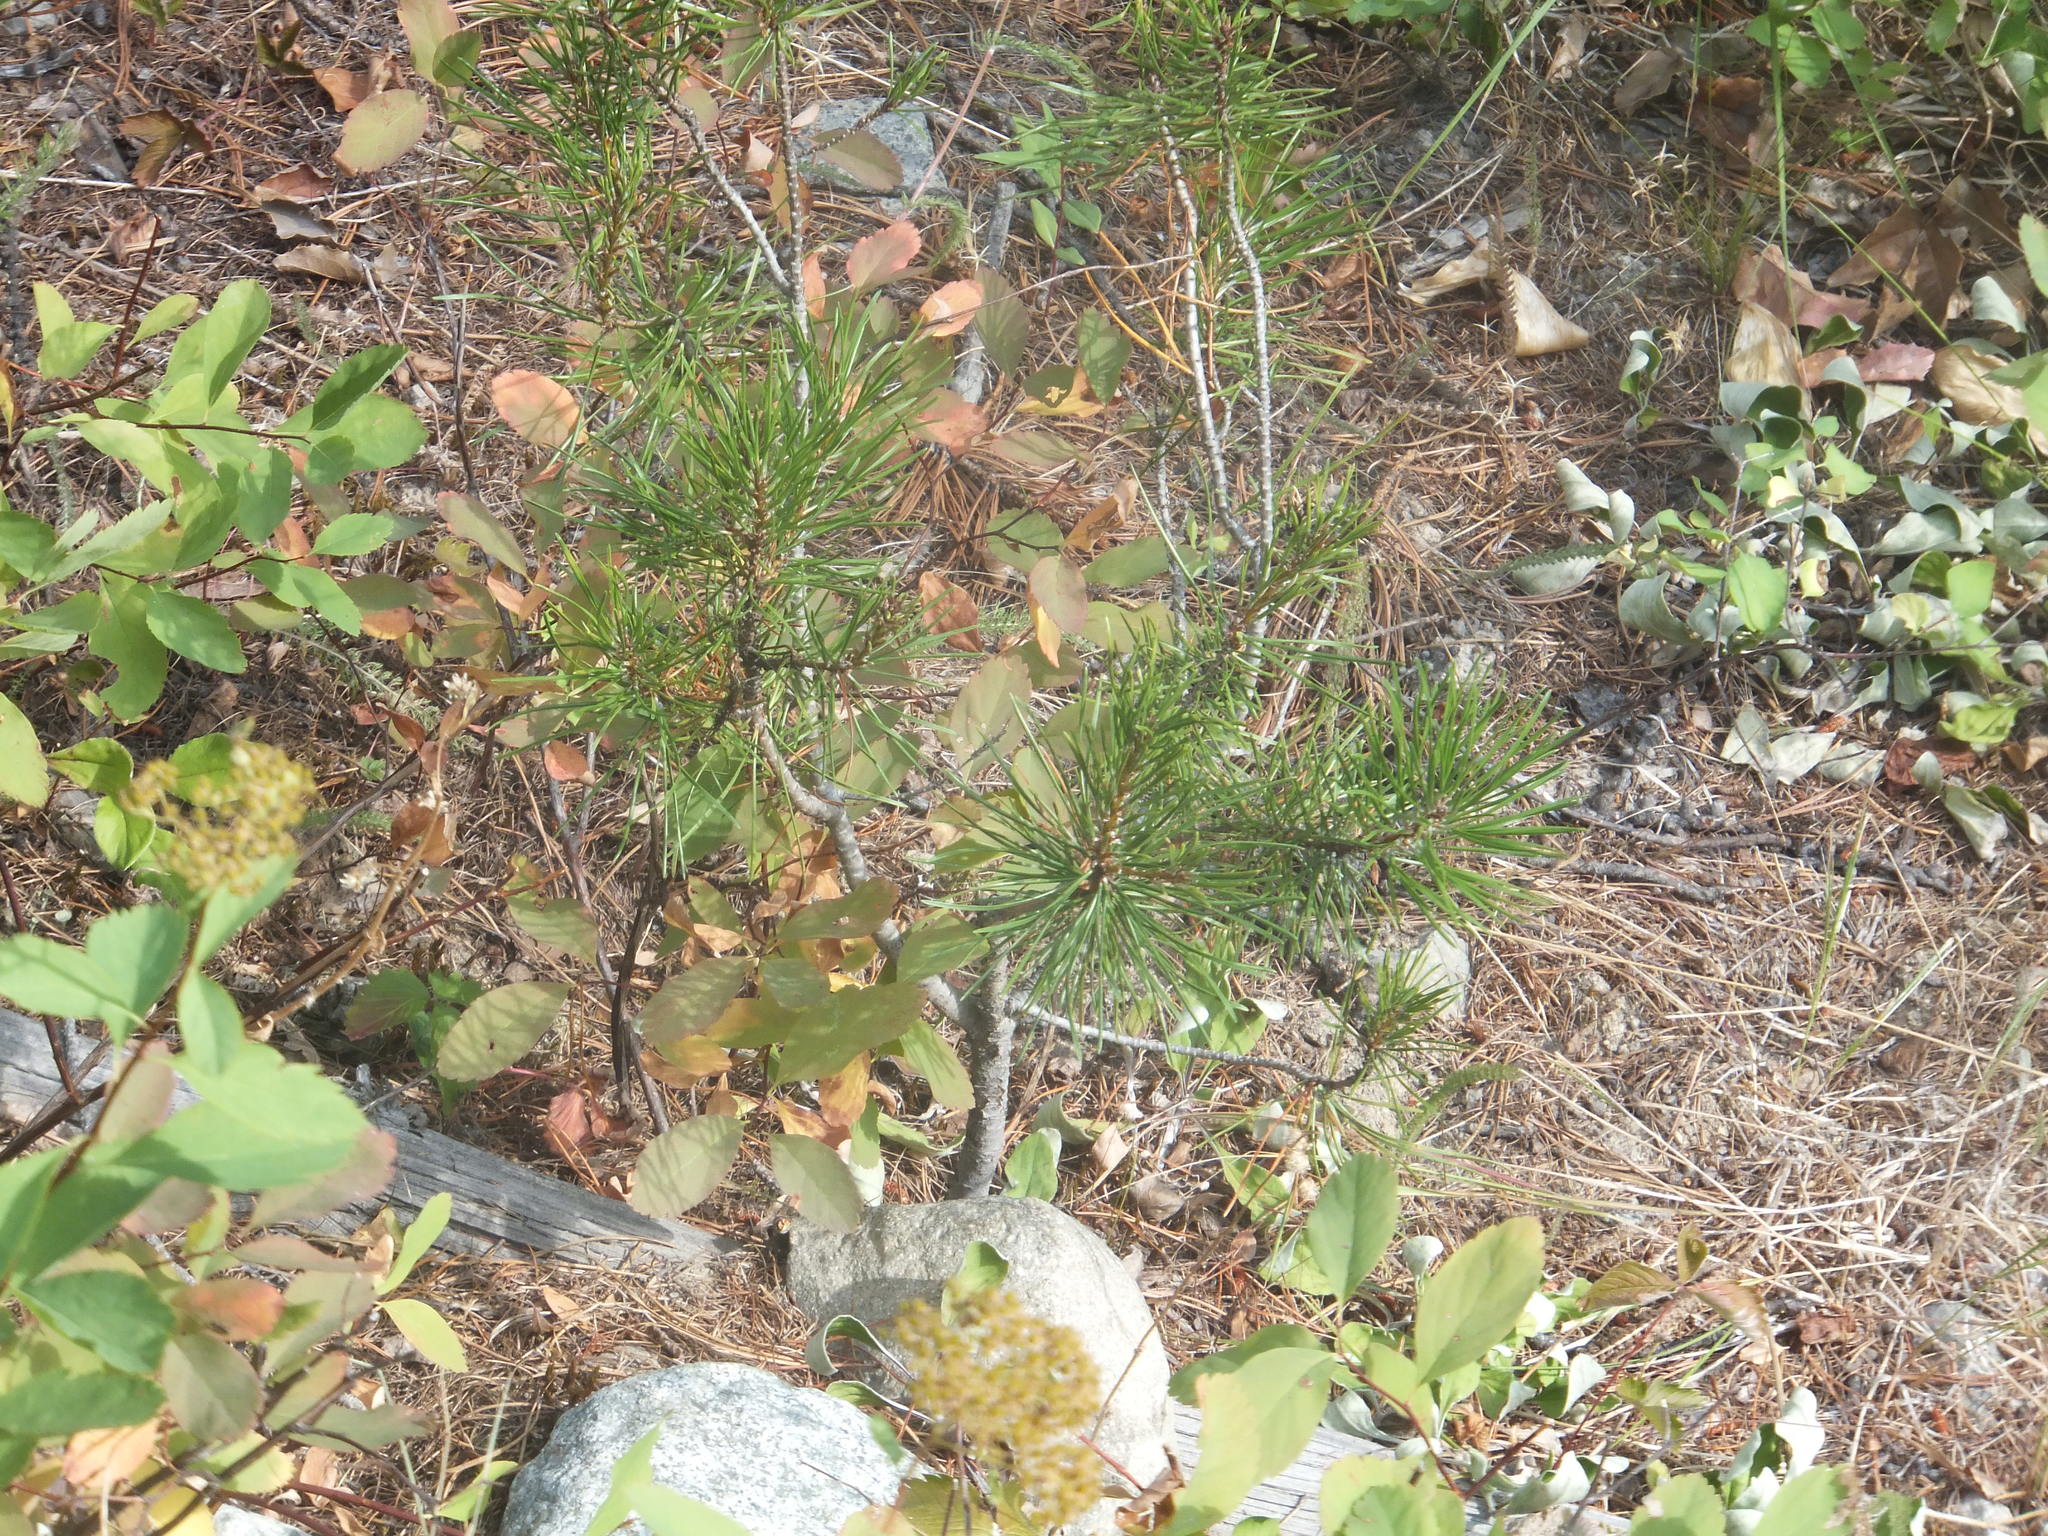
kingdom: Plantae
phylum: Tracheophyta
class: Pinopsida
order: Pinales
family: Pinaceae
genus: Pinus
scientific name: Pinus contorta
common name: Lodgepole pine
